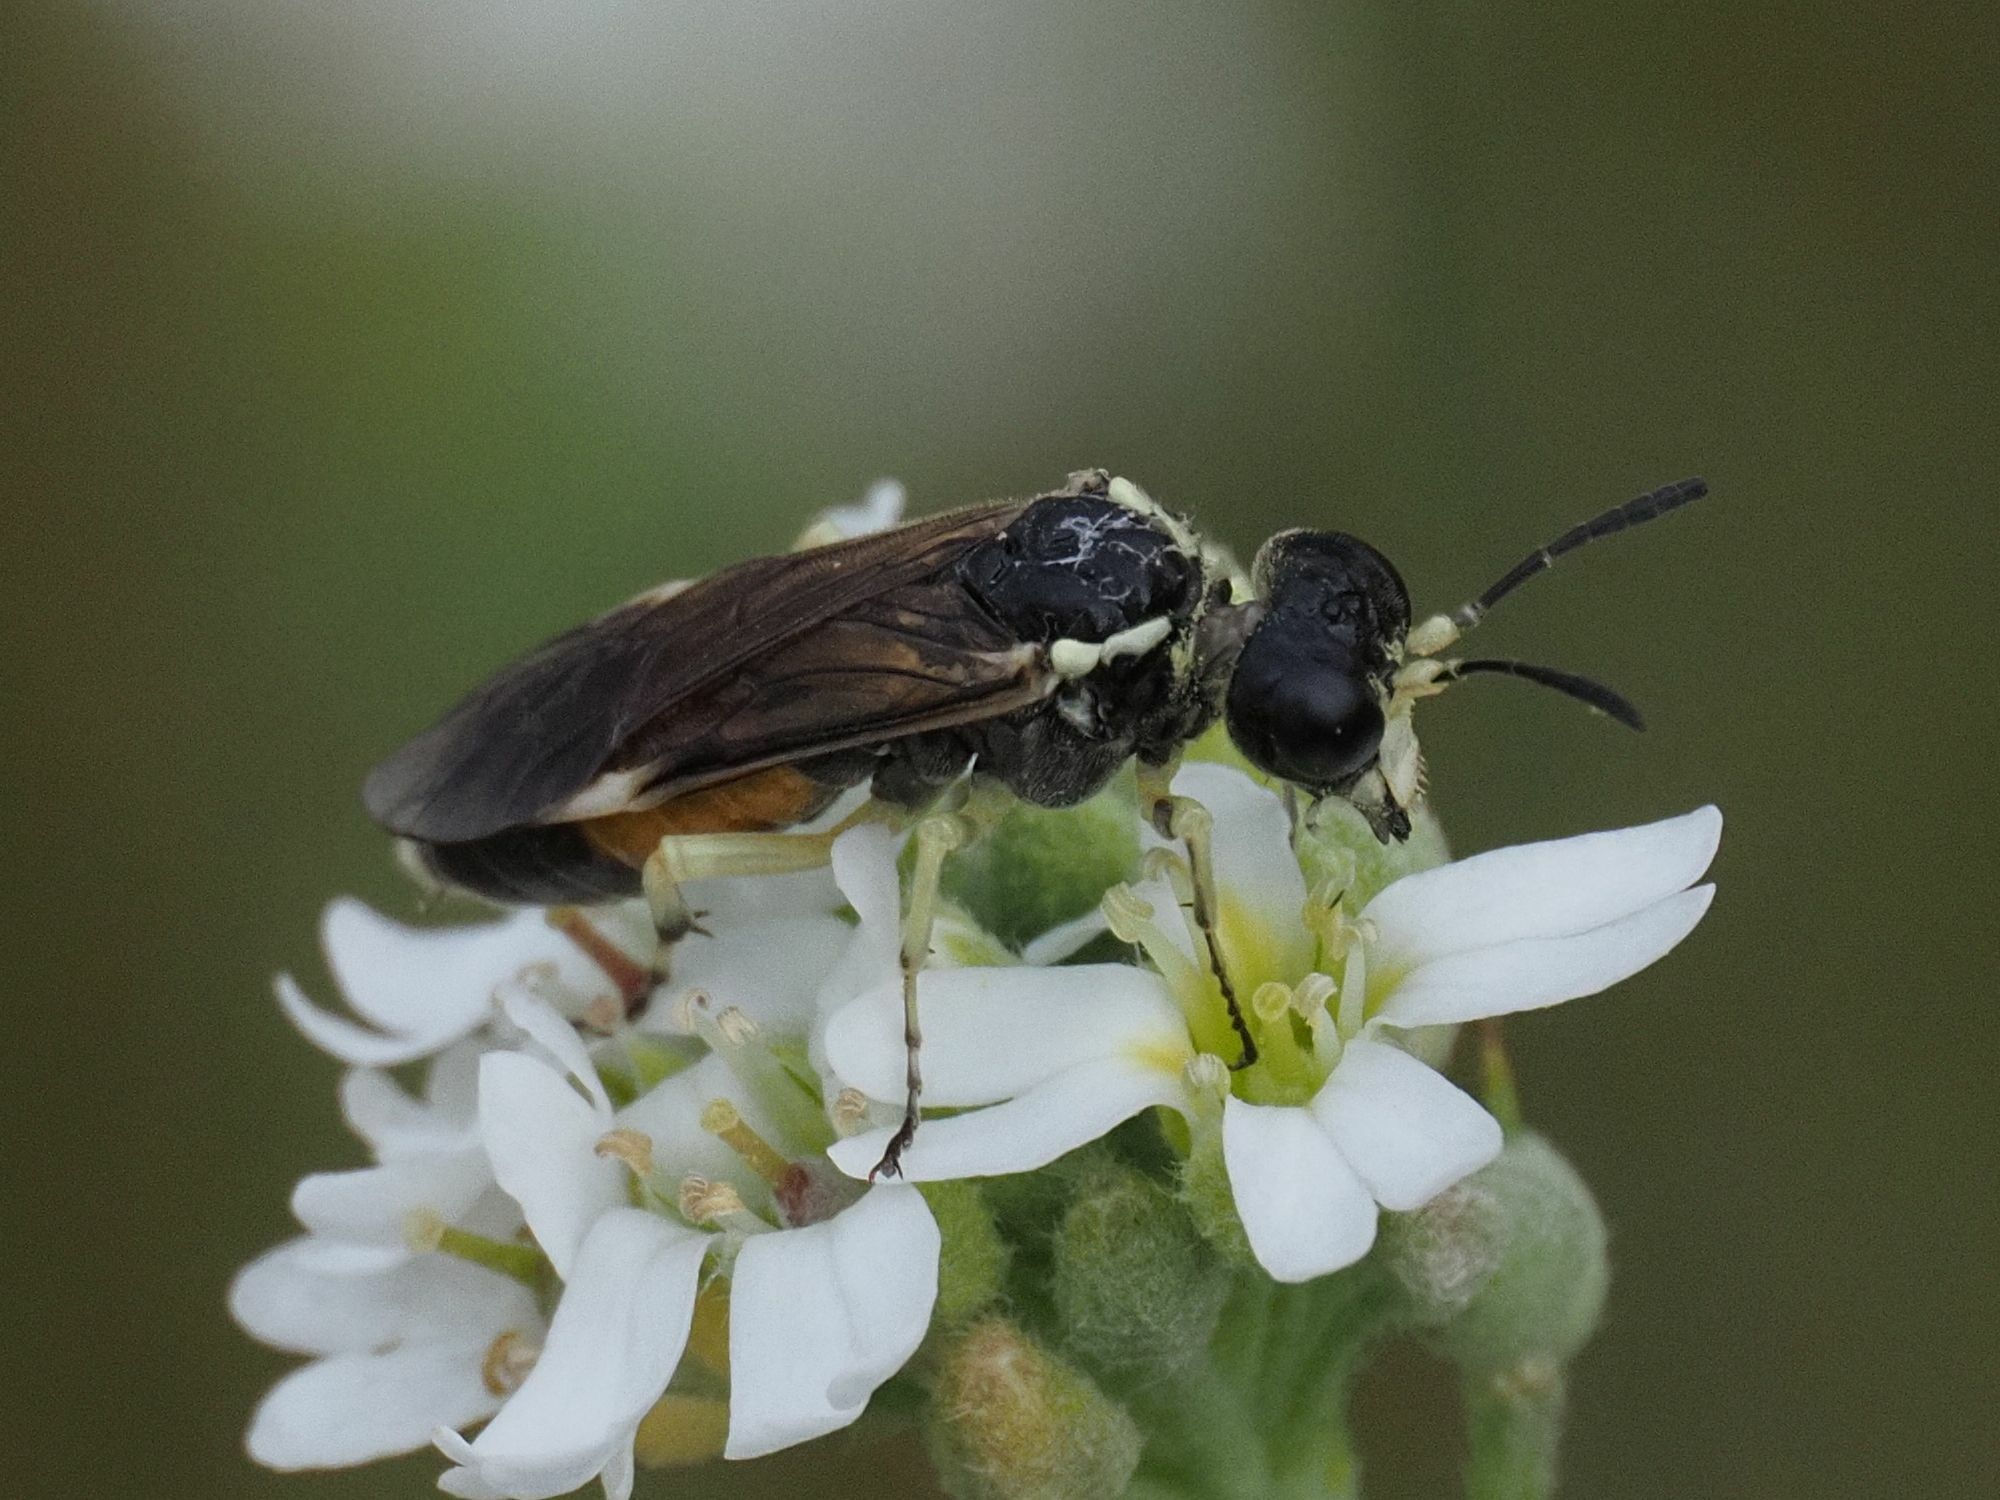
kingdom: Animalia
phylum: Arthropoda
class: Insecta
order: Hymenoptera
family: Tenthredinidae
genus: Tenthredo
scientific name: Tenthredo sabariensis
